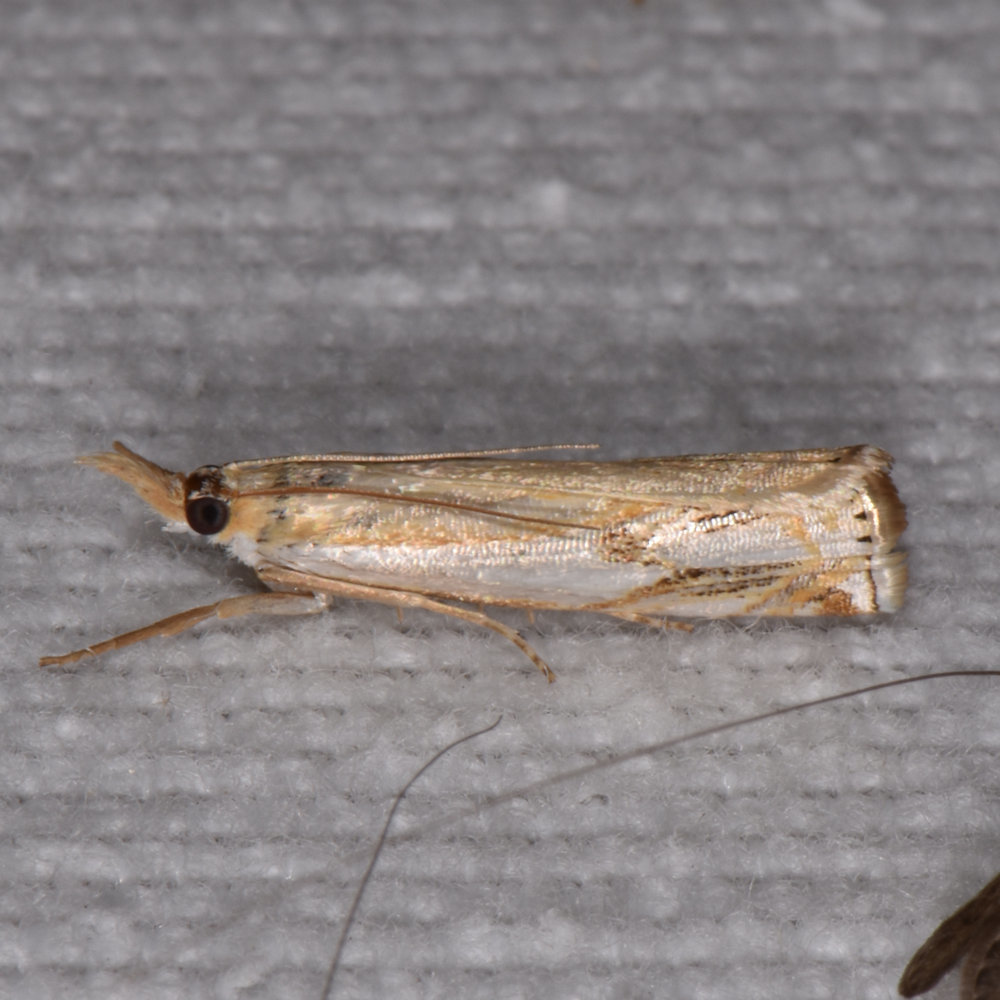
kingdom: Animalia
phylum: Arthropoda
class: Insecta
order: Lepidoptera
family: Crambidae
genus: Crambus
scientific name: Crambus agitatellus
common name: Double-banded grass-veneer
